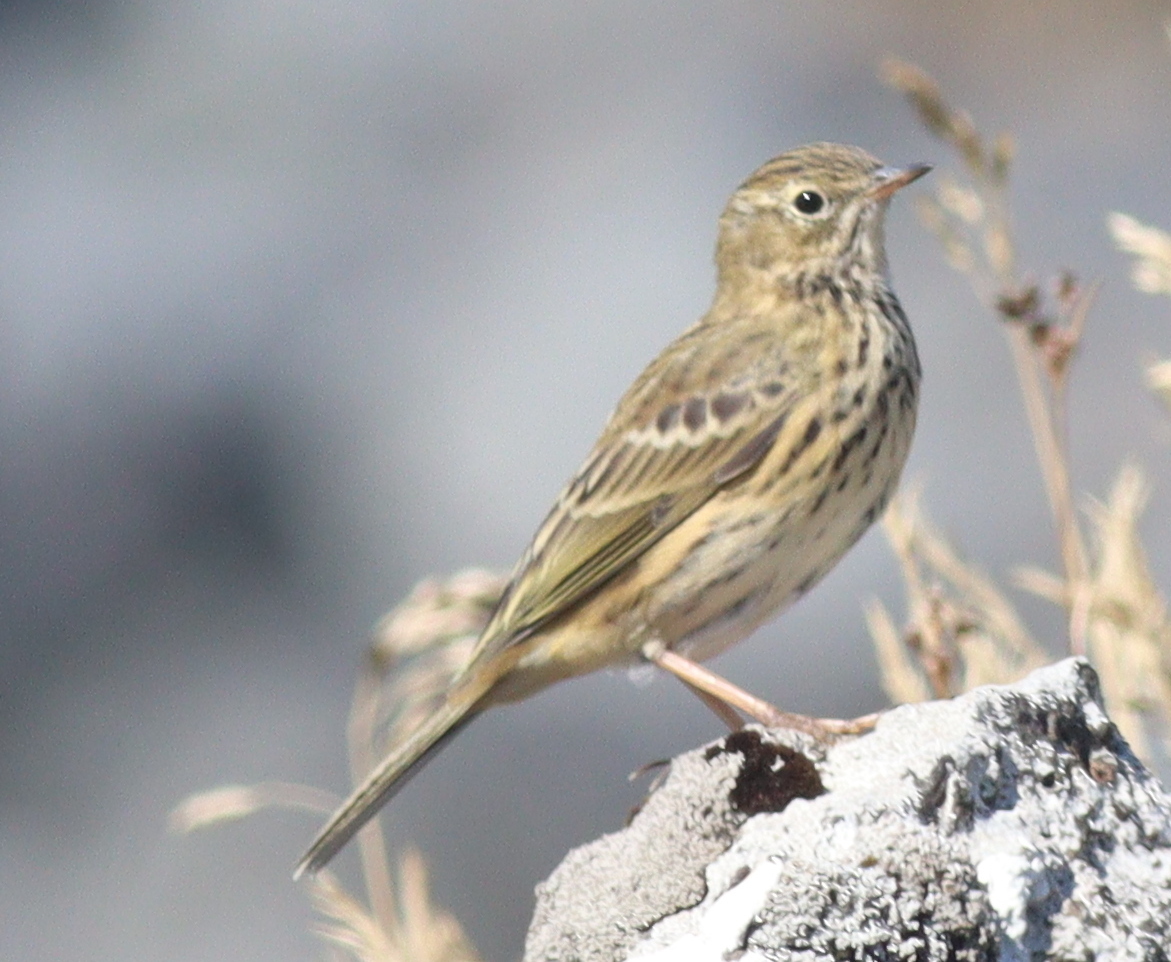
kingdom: Animalia
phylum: Chordata
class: Aves
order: Passeriformes
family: Motacillidae
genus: Anthus
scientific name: Anthus pratensis
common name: Meadow pipit
